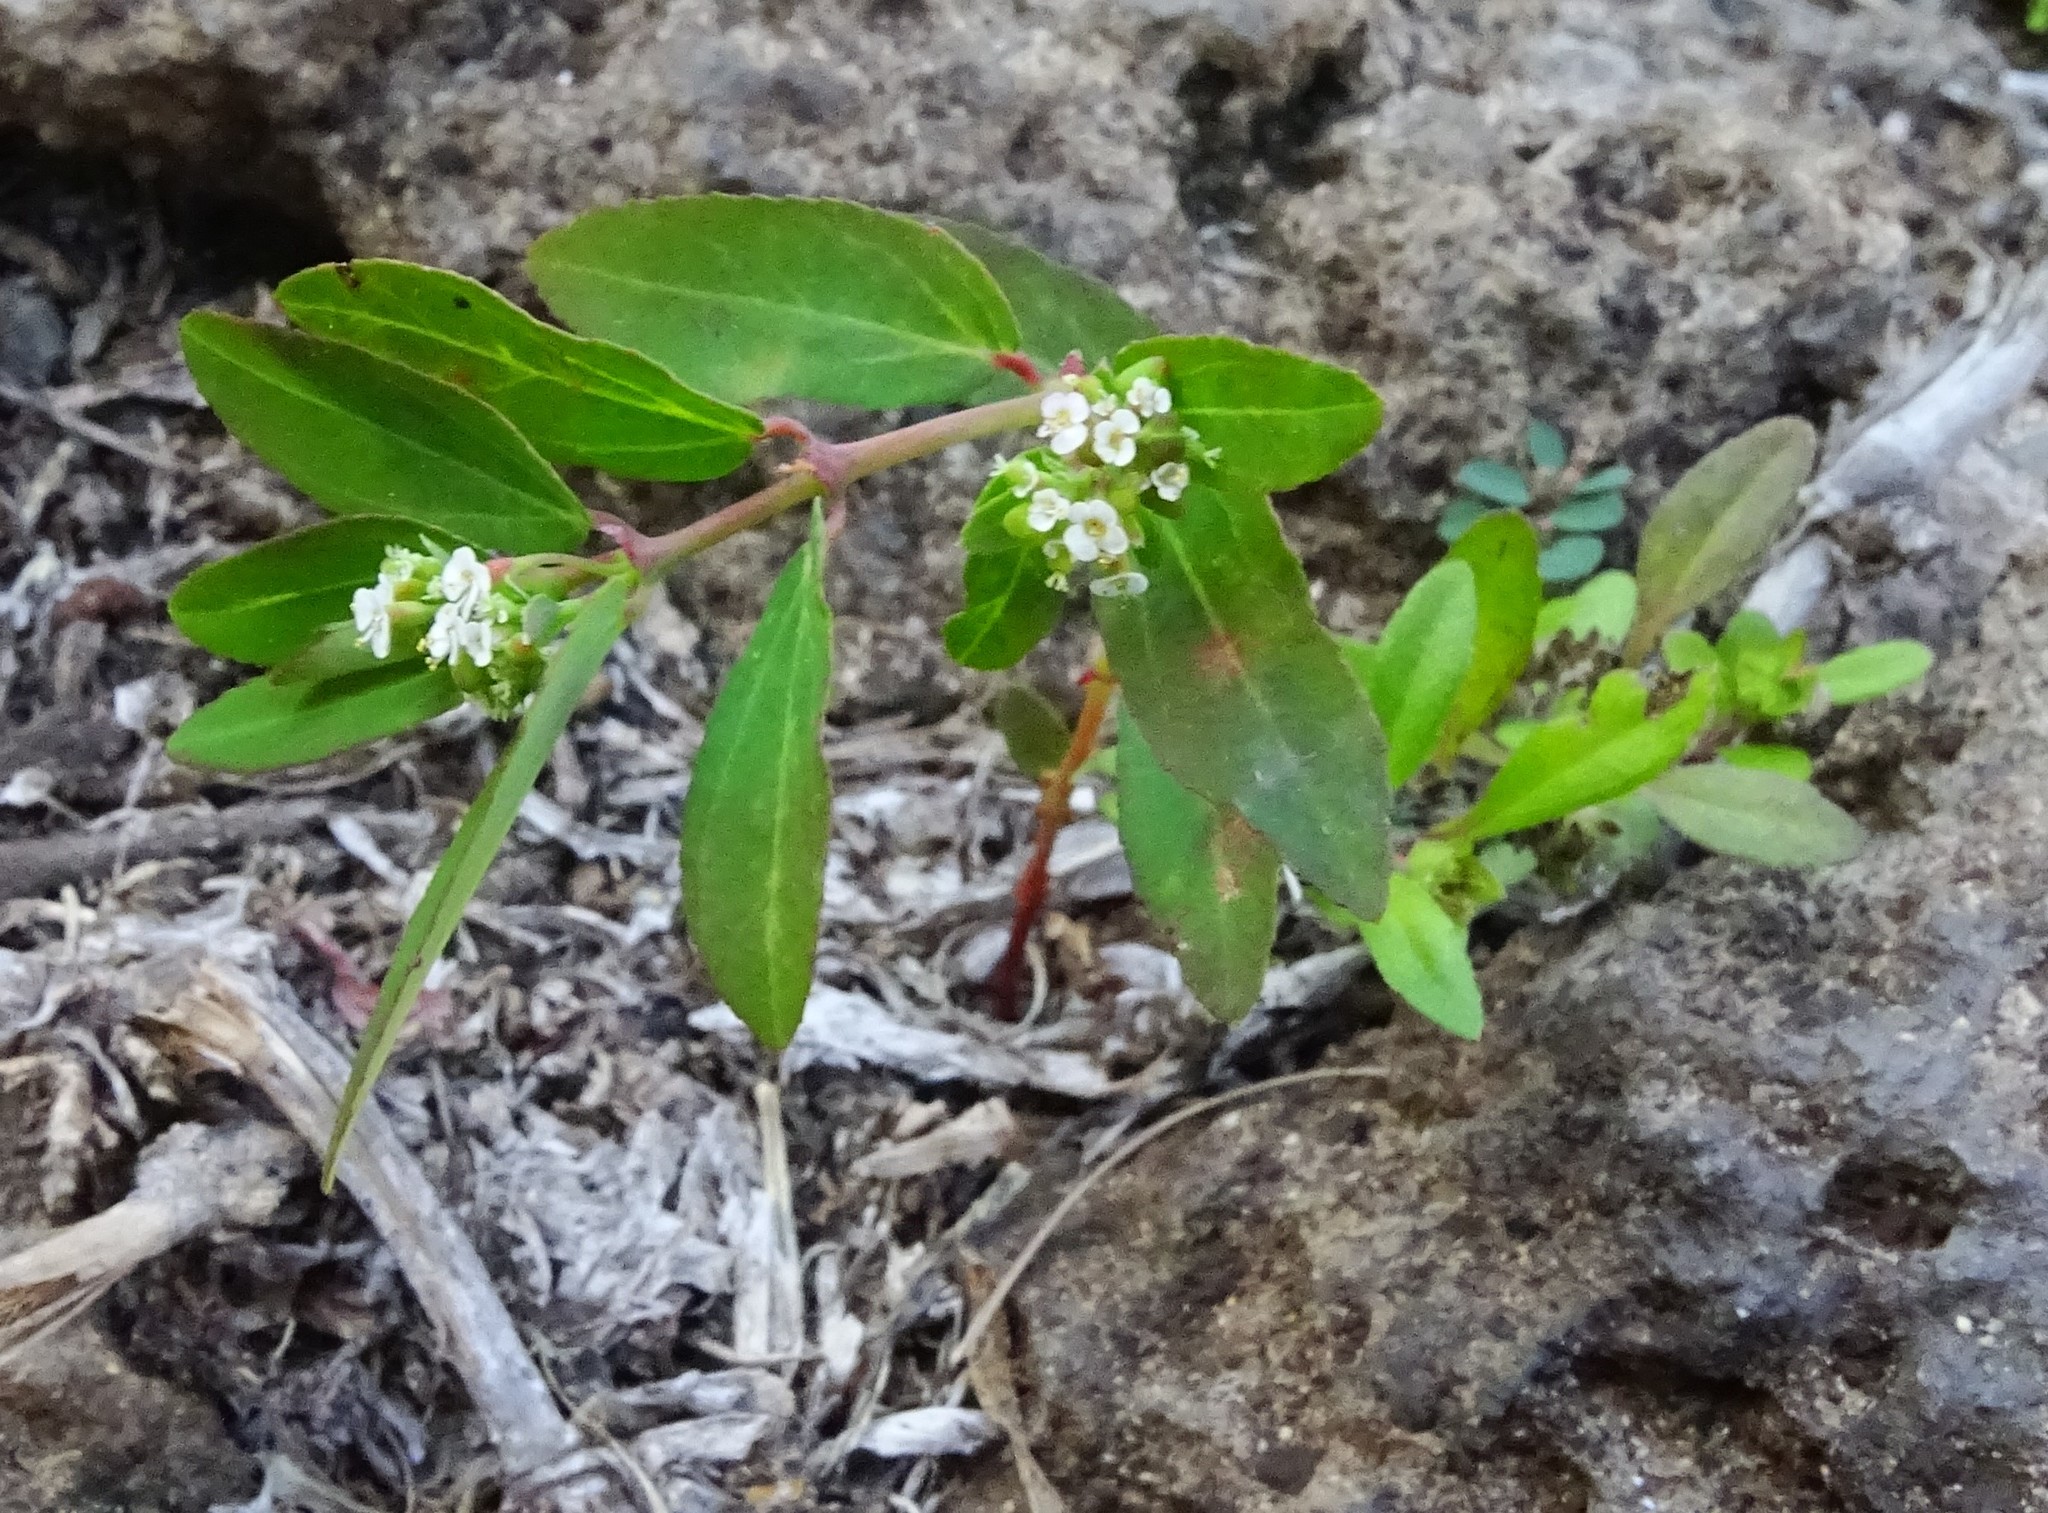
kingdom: Plantae
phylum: Tracheophyta
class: Magnoliopsida
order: Malpighiales
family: Euphorbiaceae
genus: Euphorbia
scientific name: Euphorbia hypericifolia
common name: Graceful sandmat
